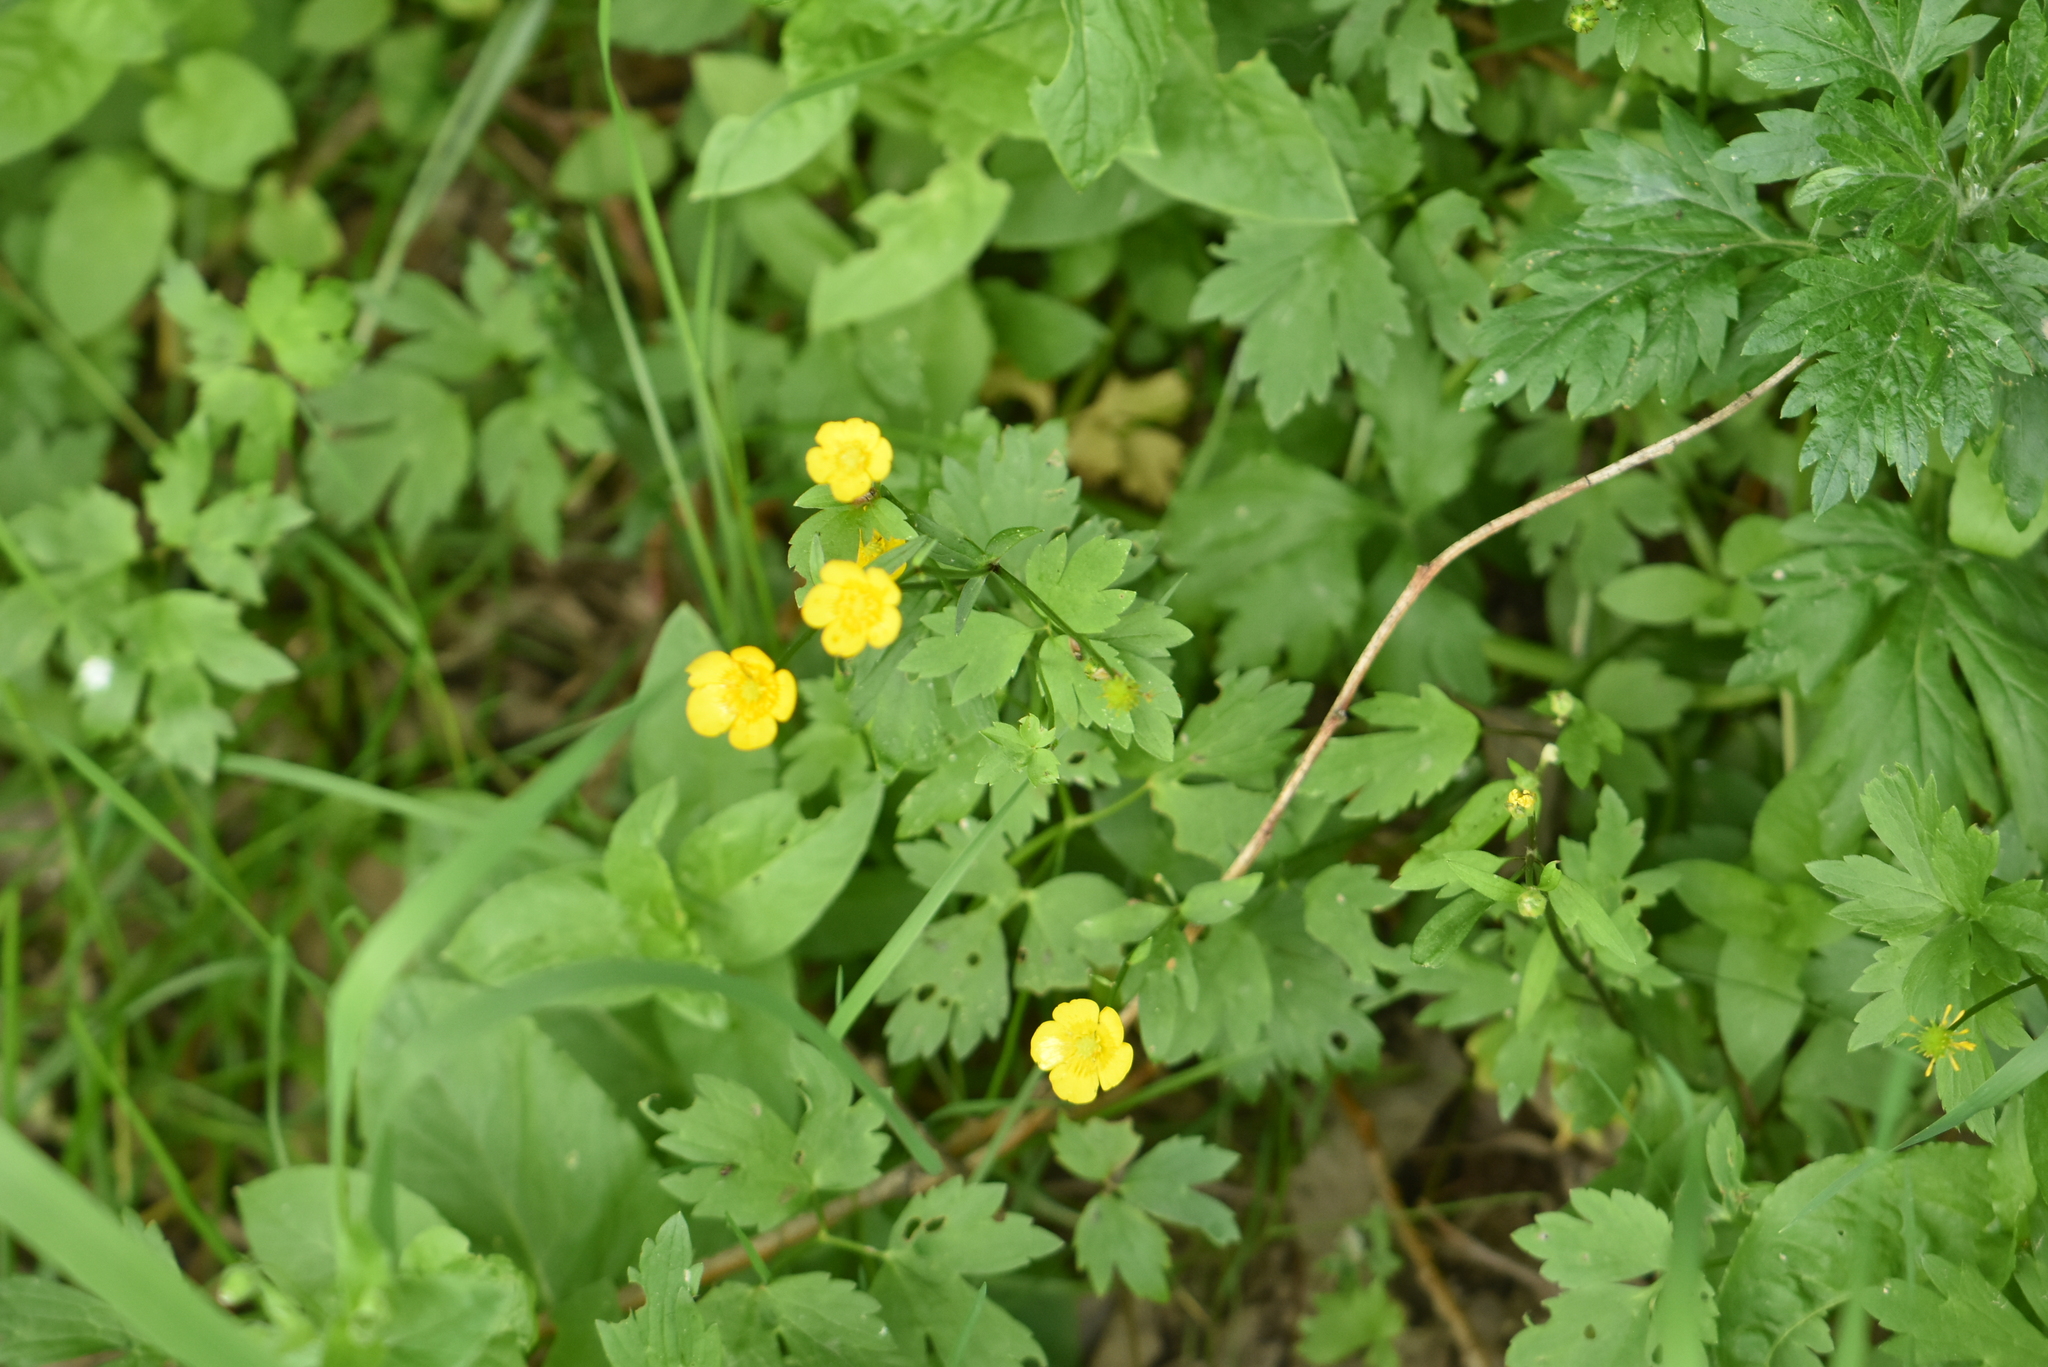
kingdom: Plantae
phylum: Tracheophyta
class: Magnoliopsida
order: Ranunculales
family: Ranunculaceae
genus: Ranunculus
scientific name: Ranunculus repens
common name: Creeping buttercup
